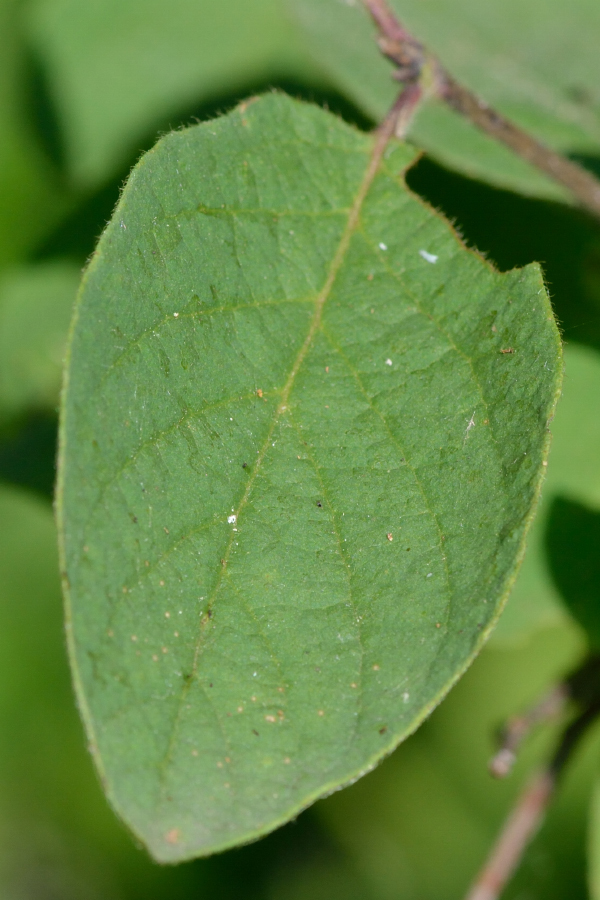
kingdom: Plantae
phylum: Tracheophyta
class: Magnoliopsida
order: Dipsacales
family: Caprifoliaceae
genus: Lonicera
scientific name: Lonicera xylosteum
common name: Fly honeysuckle
